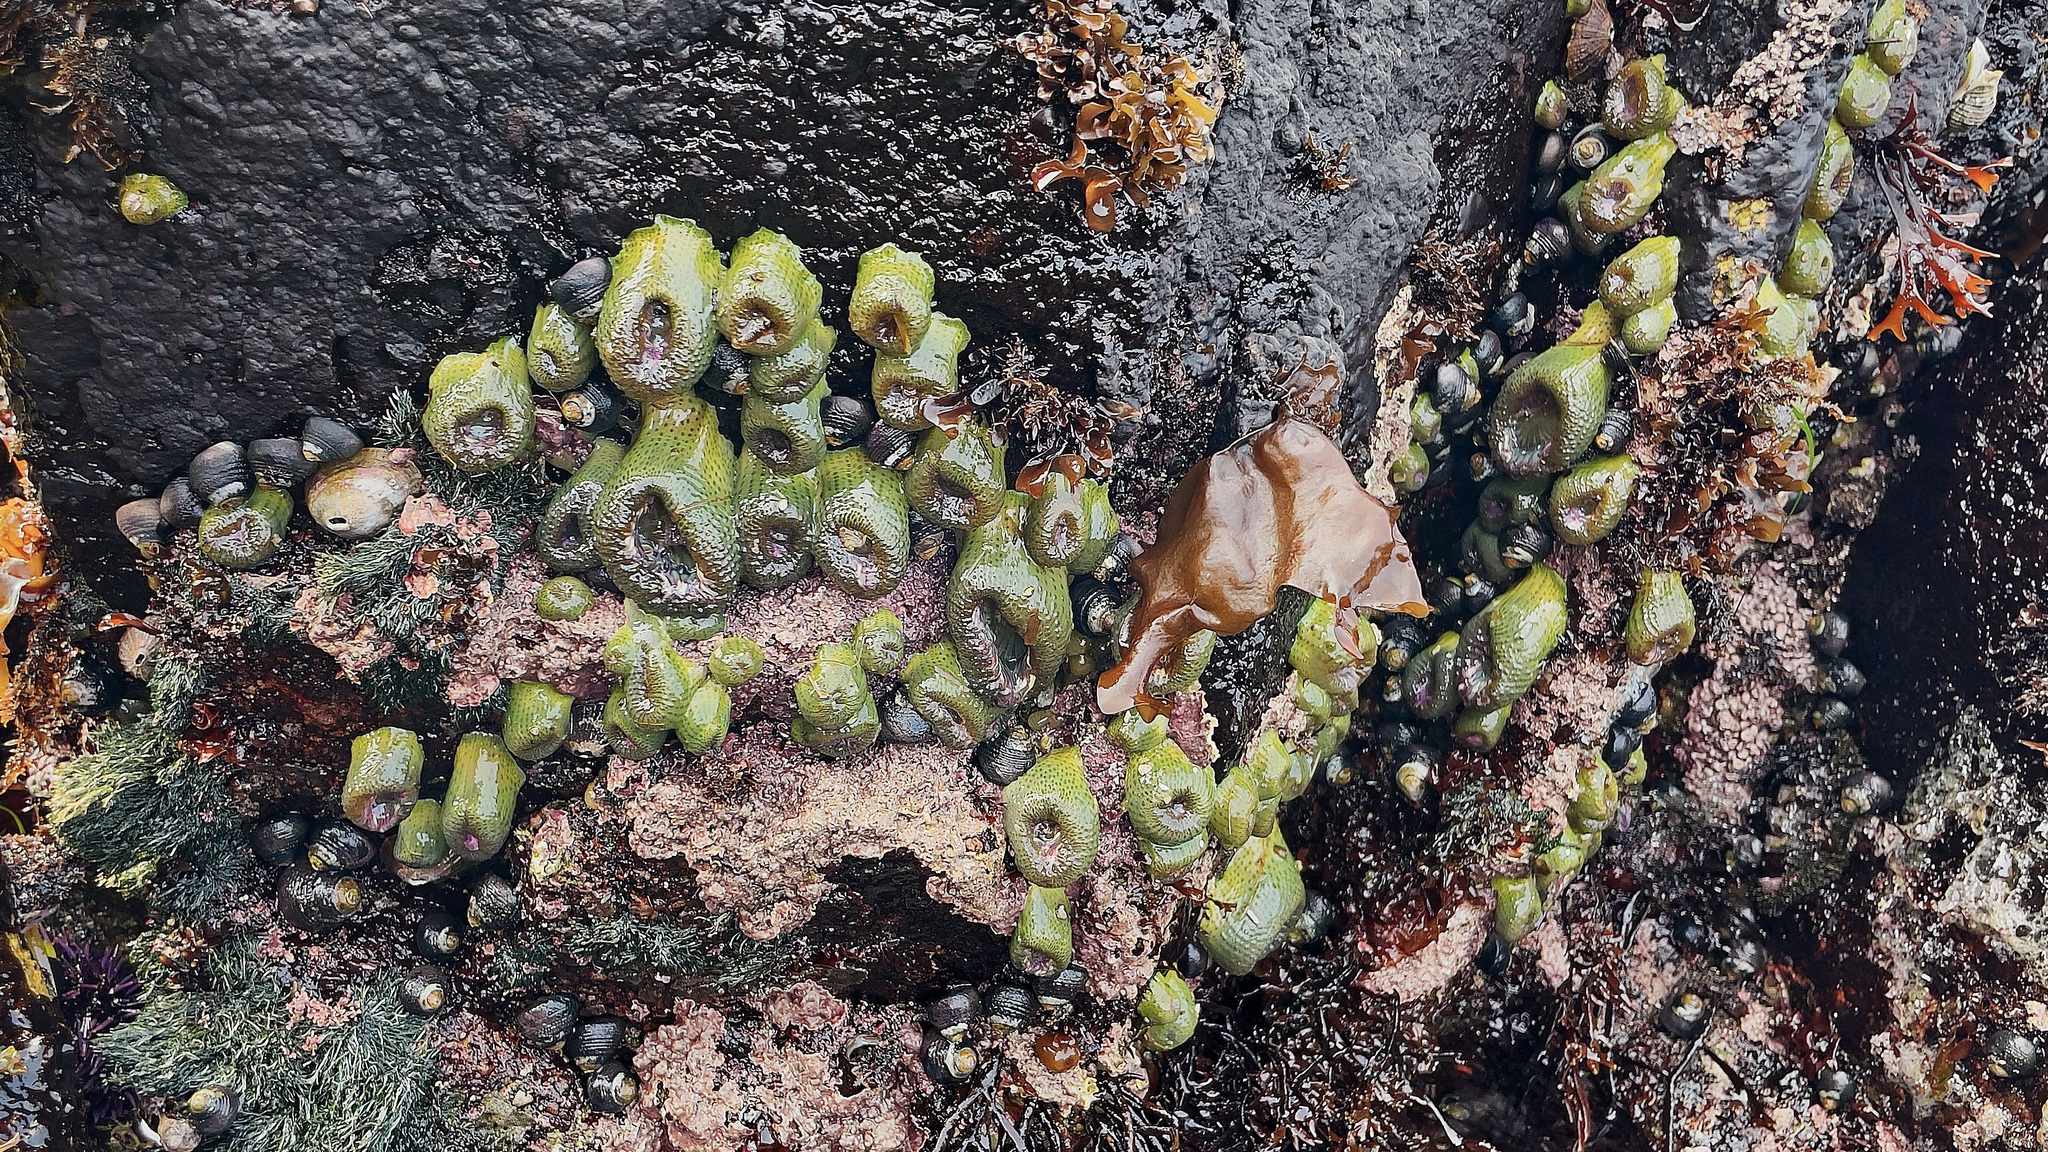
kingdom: Animalia
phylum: Cnidaria
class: Anthozoa
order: Actiniaria
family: Actiniidae
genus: Anthopleura
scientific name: Anthopleura elegantissima
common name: Clonal anemone
